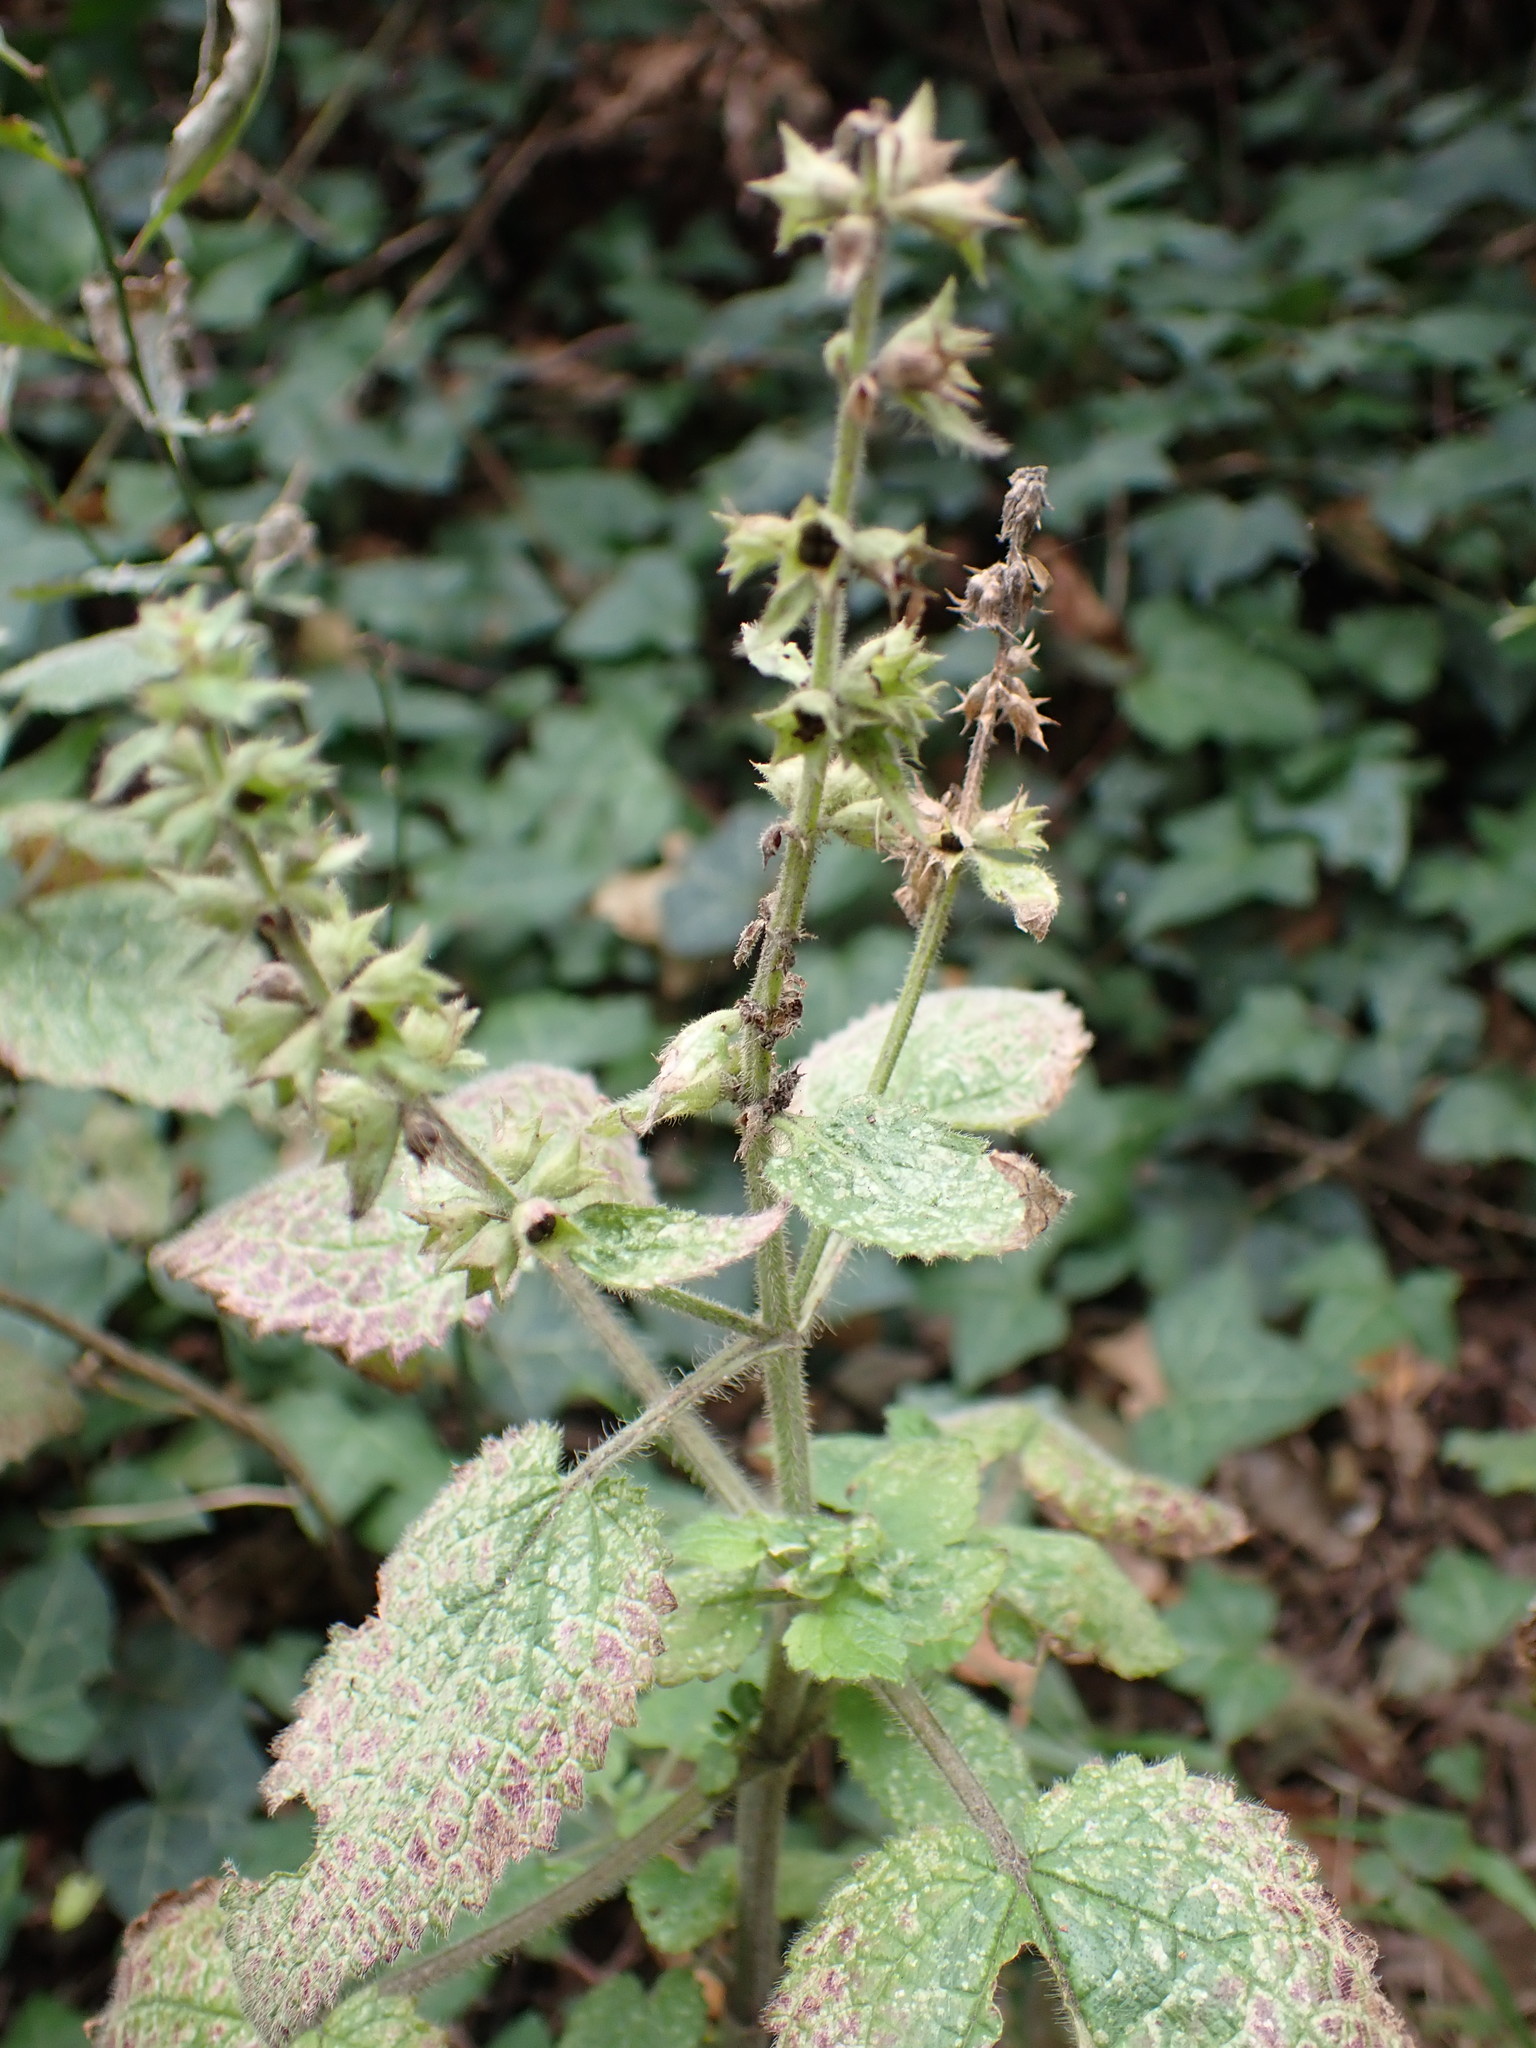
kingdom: Plantae
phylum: Tracheophyta
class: Magnoliopsida
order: Lamiales
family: Lamiaceae
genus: Stachys
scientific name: Stachys sylvatica
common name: Hedge woundwort
